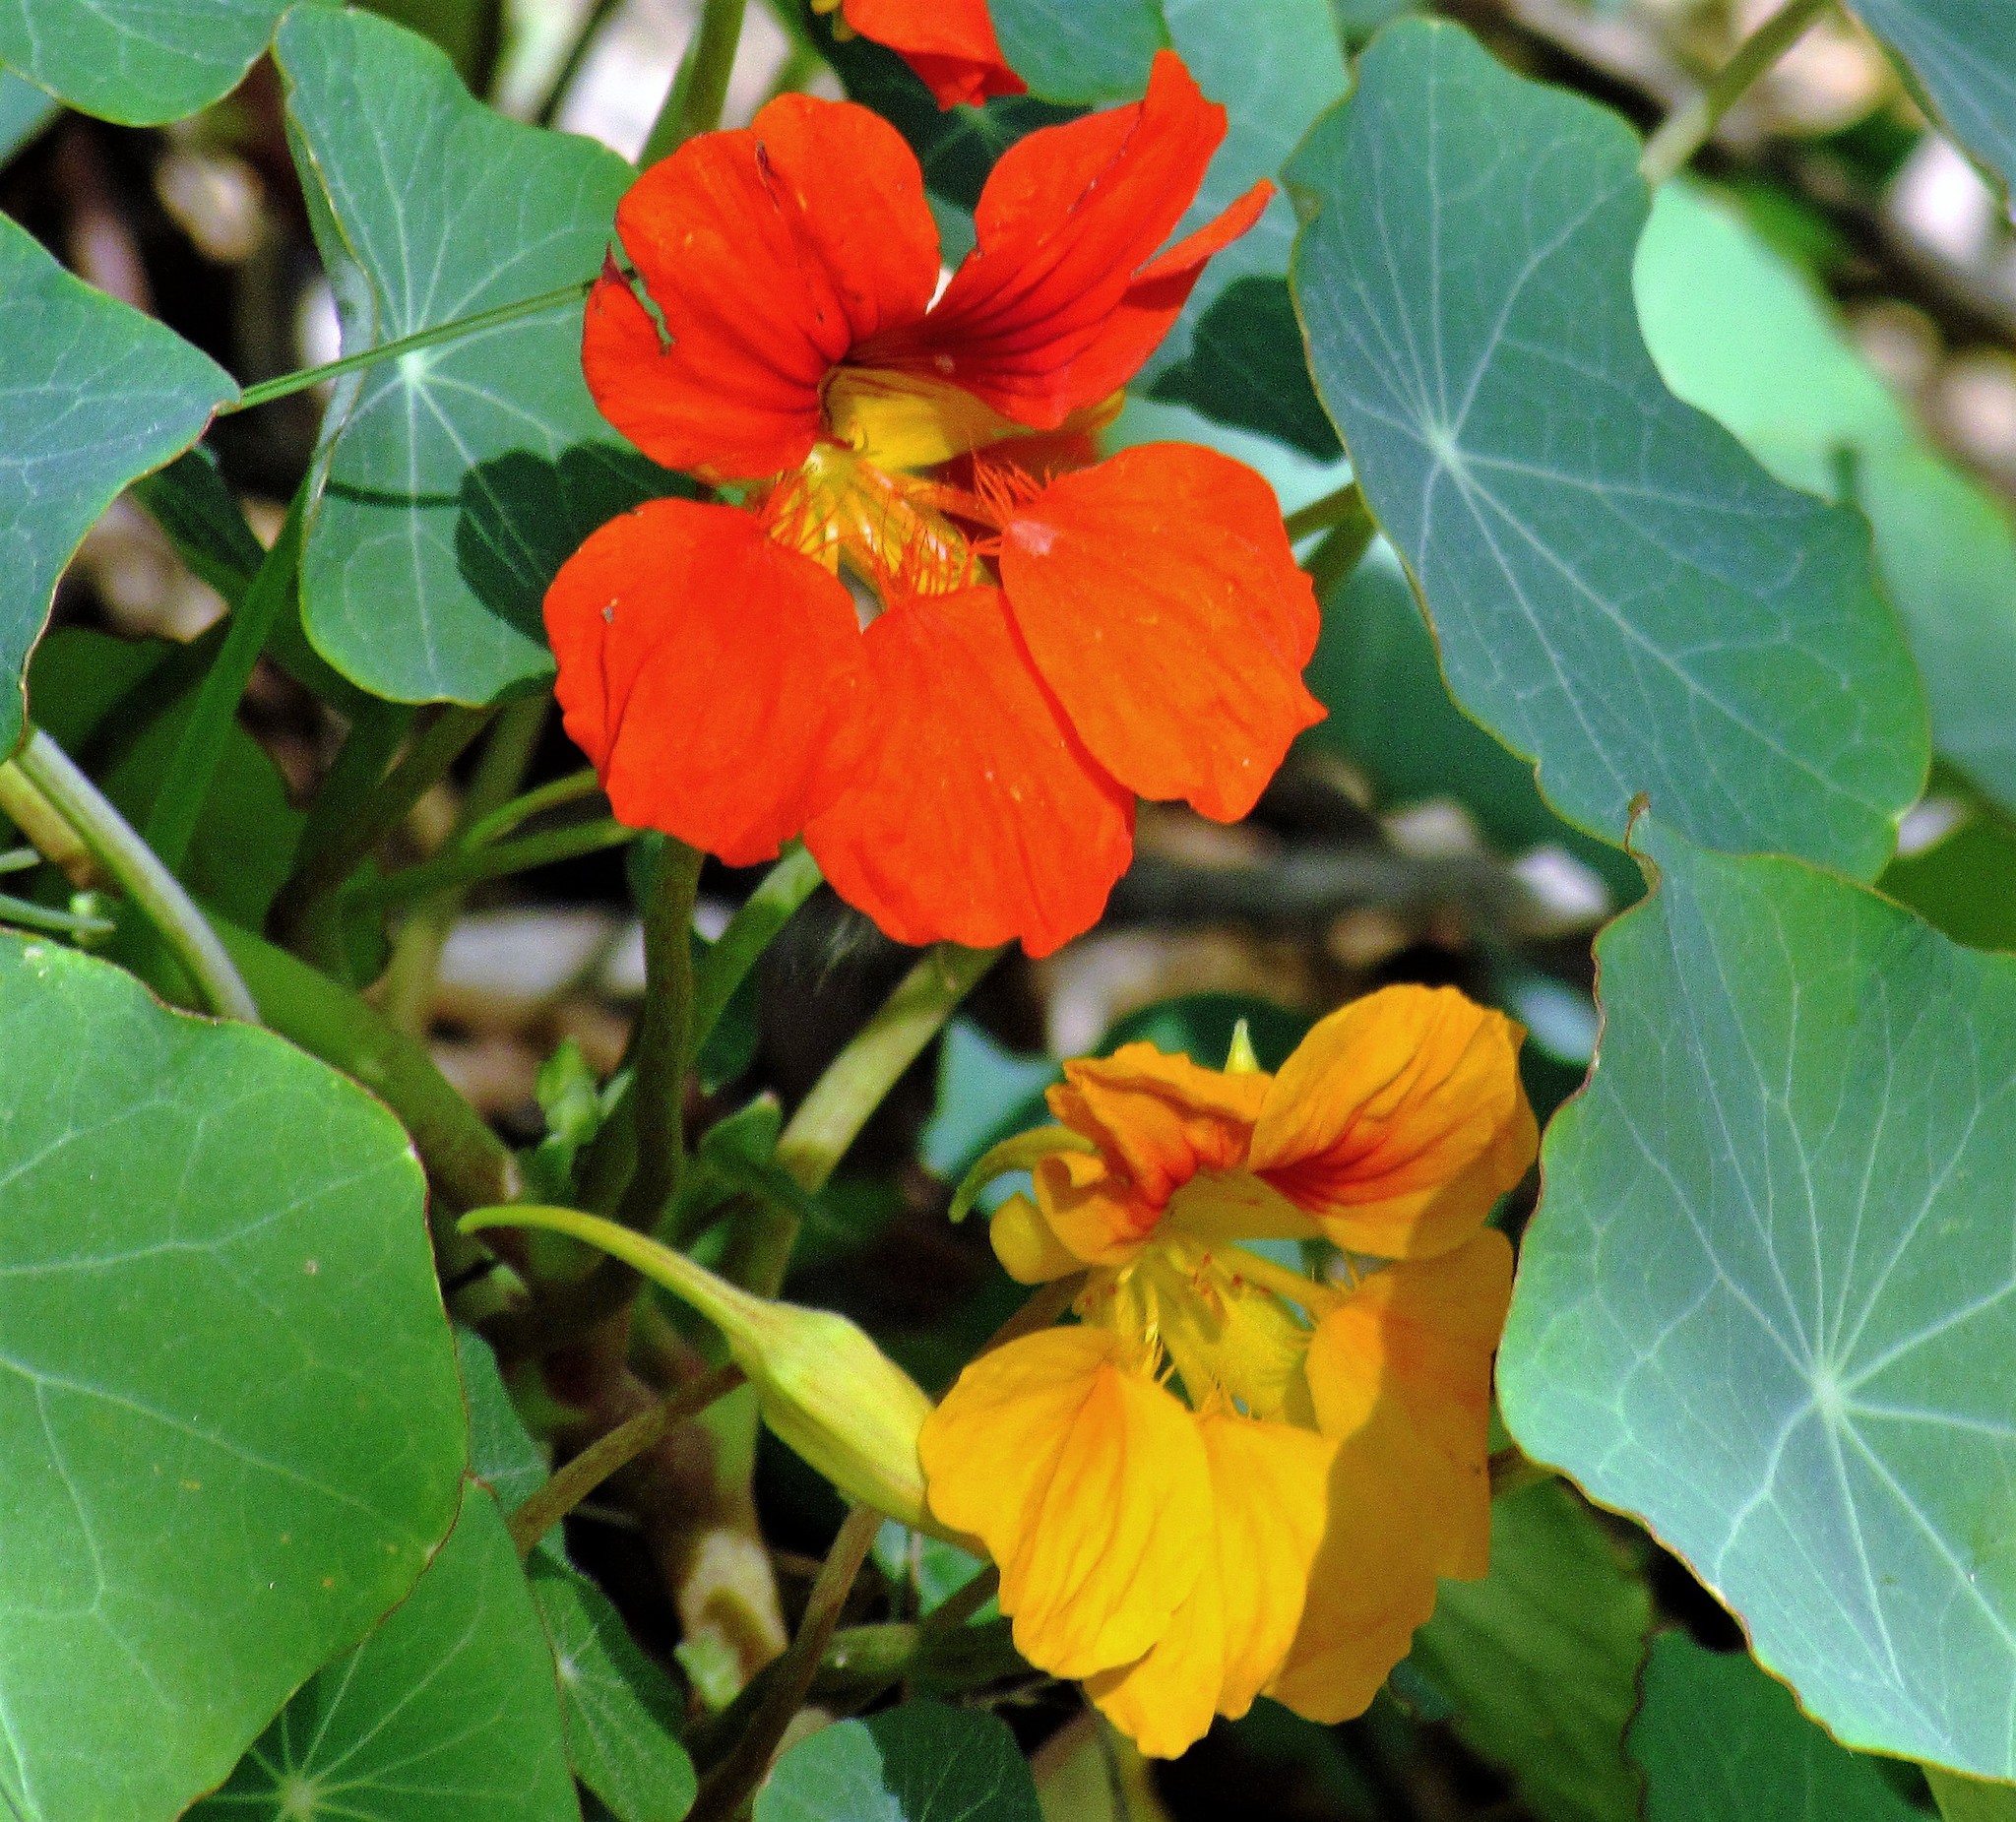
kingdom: Plantae
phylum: Tracheophyta
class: Magnoliopsida
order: Brassicales
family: Tropaeolaceae
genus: Tropaeolum
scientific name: Tropaeolum majus
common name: Nasturtium
